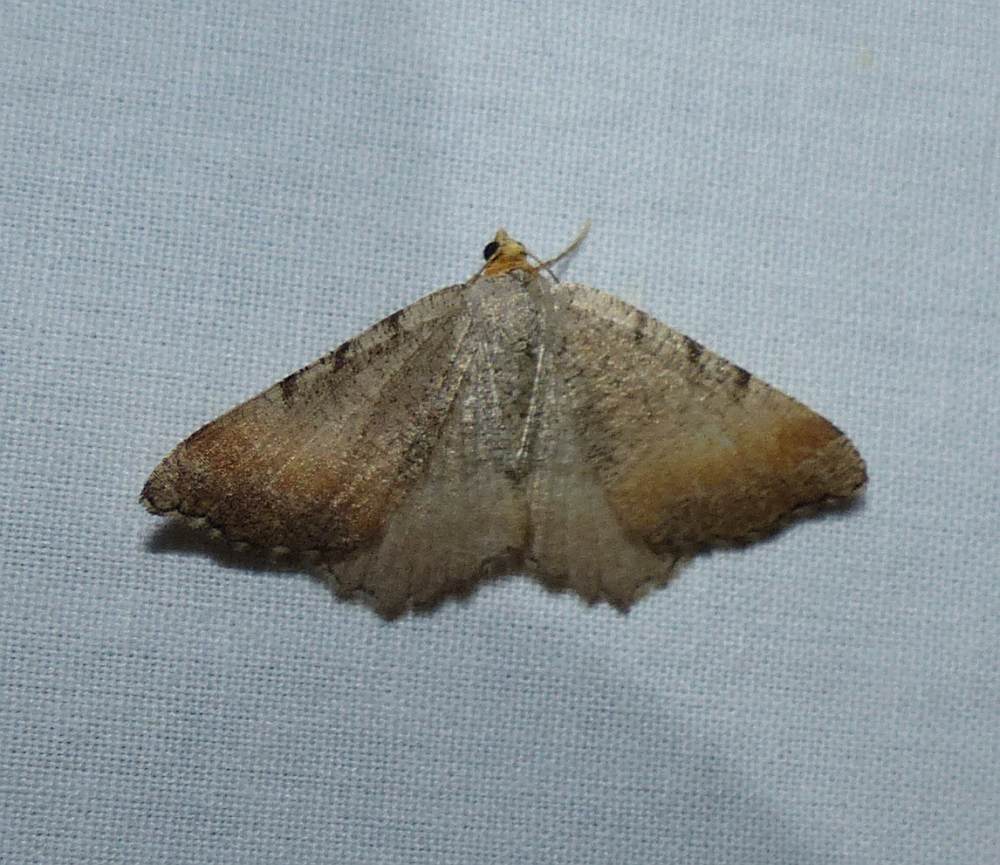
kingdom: Animalia
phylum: Arthropoda
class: Insecta
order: Lepidoptera
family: Geometridae
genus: Macaria
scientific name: Macaria transitaria
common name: Blurry chocolate angle
